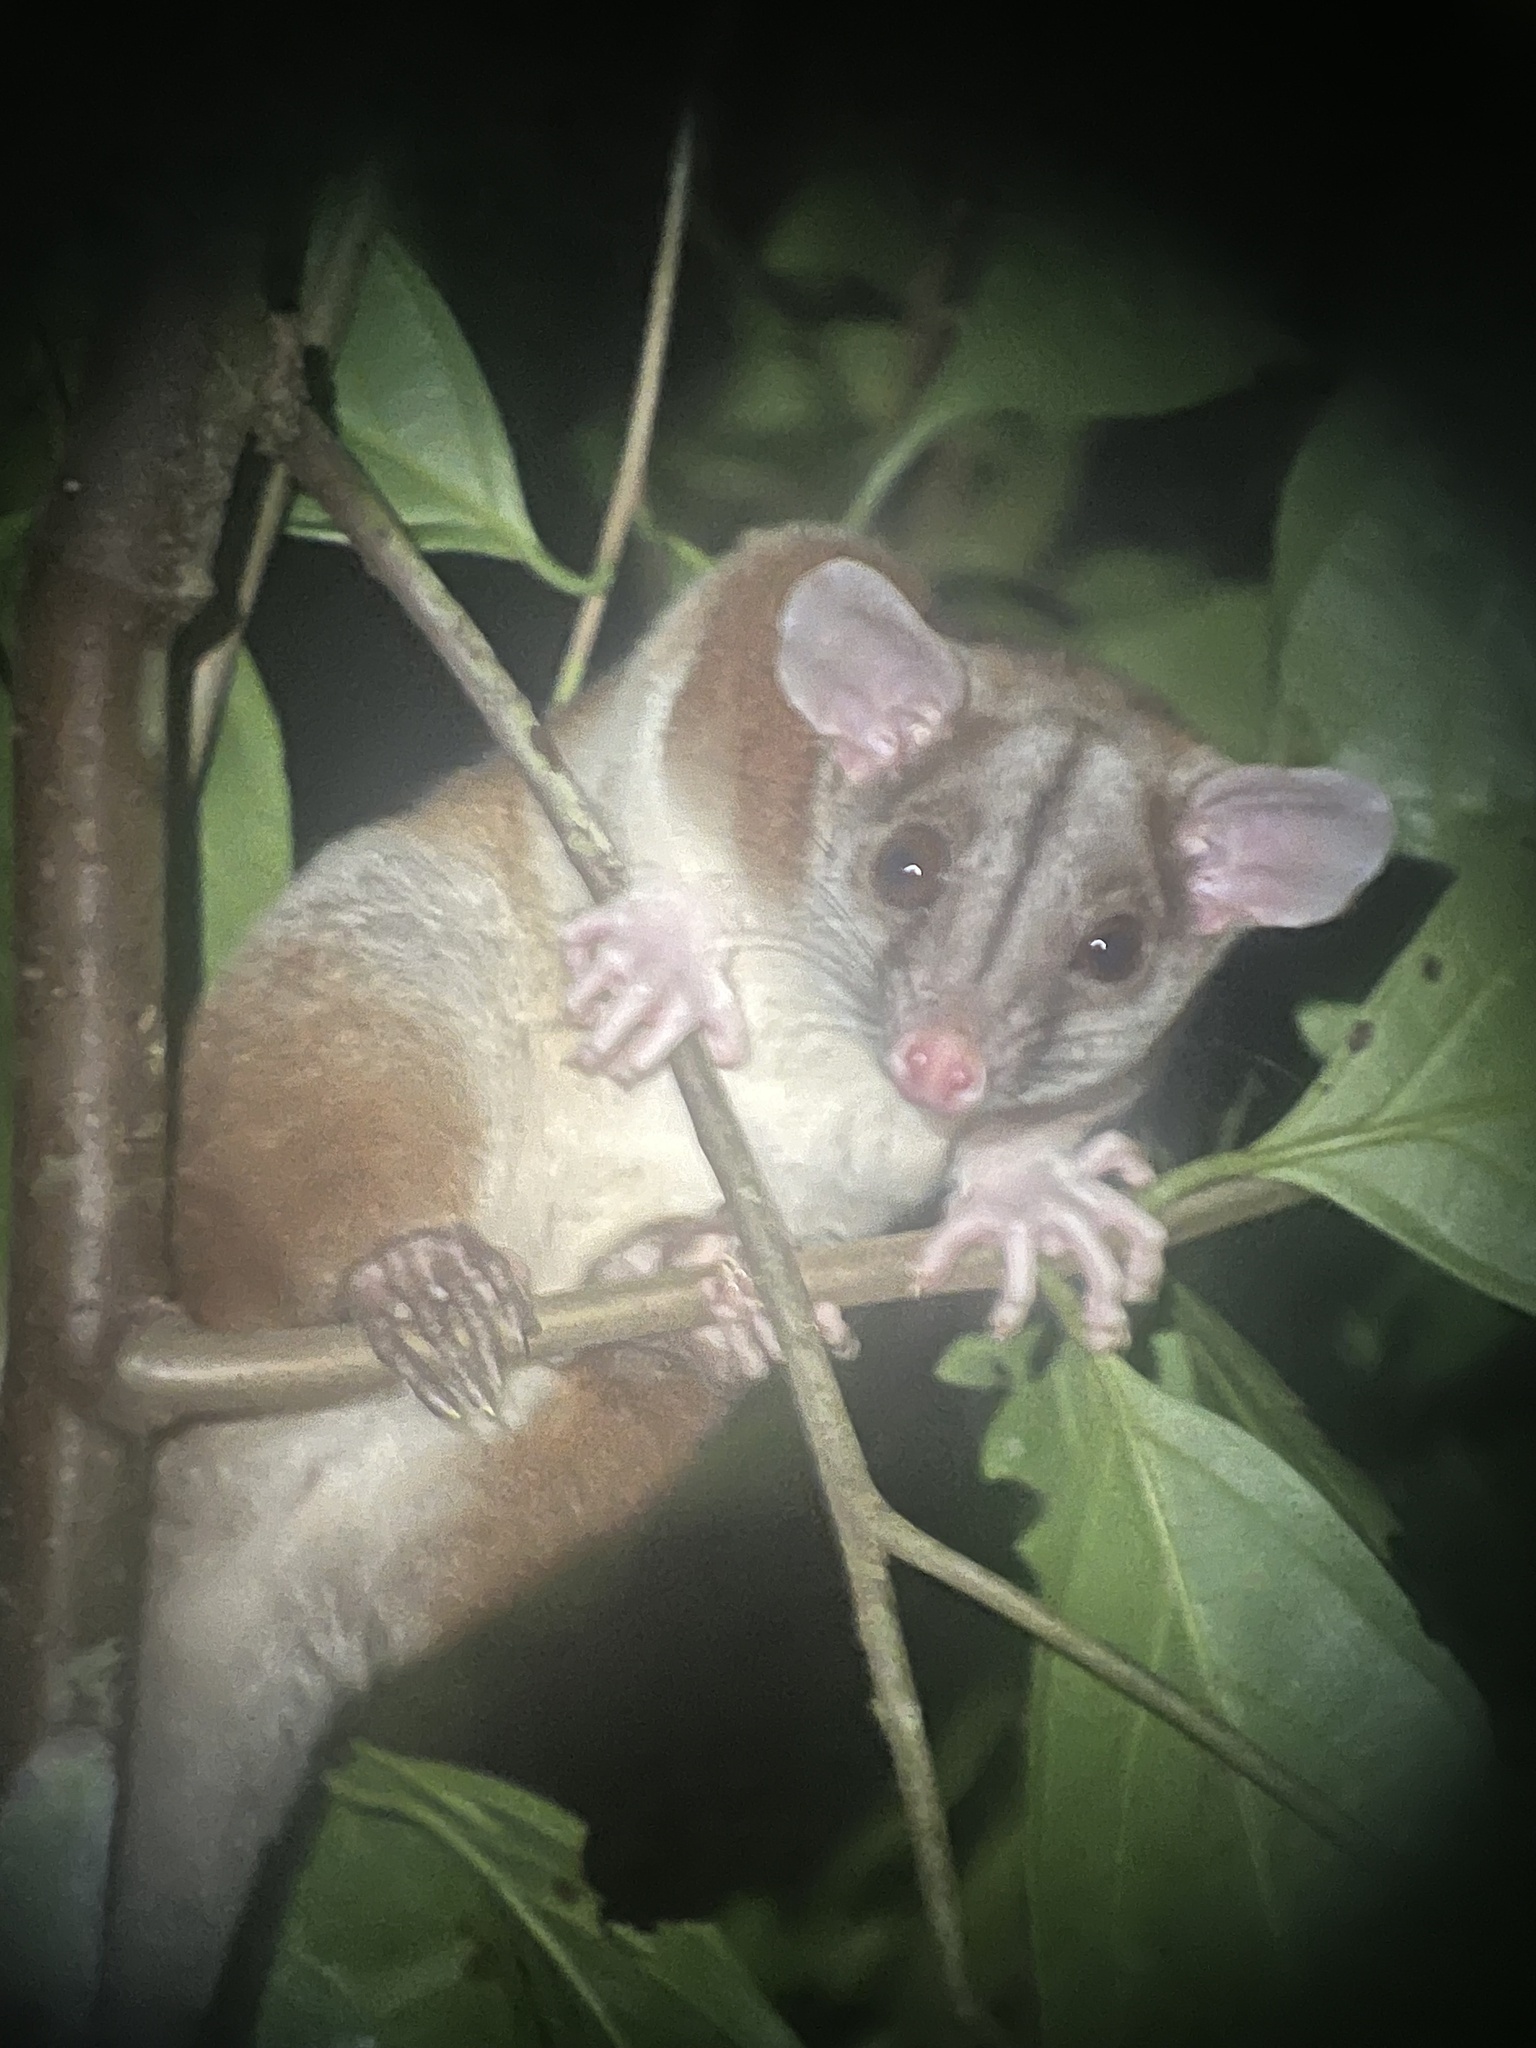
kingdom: Animalia
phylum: Chordata
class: Mammalia
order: Didelphimorphia
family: Didelphidae
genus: Caluromys
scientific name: Caluromys derbianus
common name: Derby's woolly opossum
